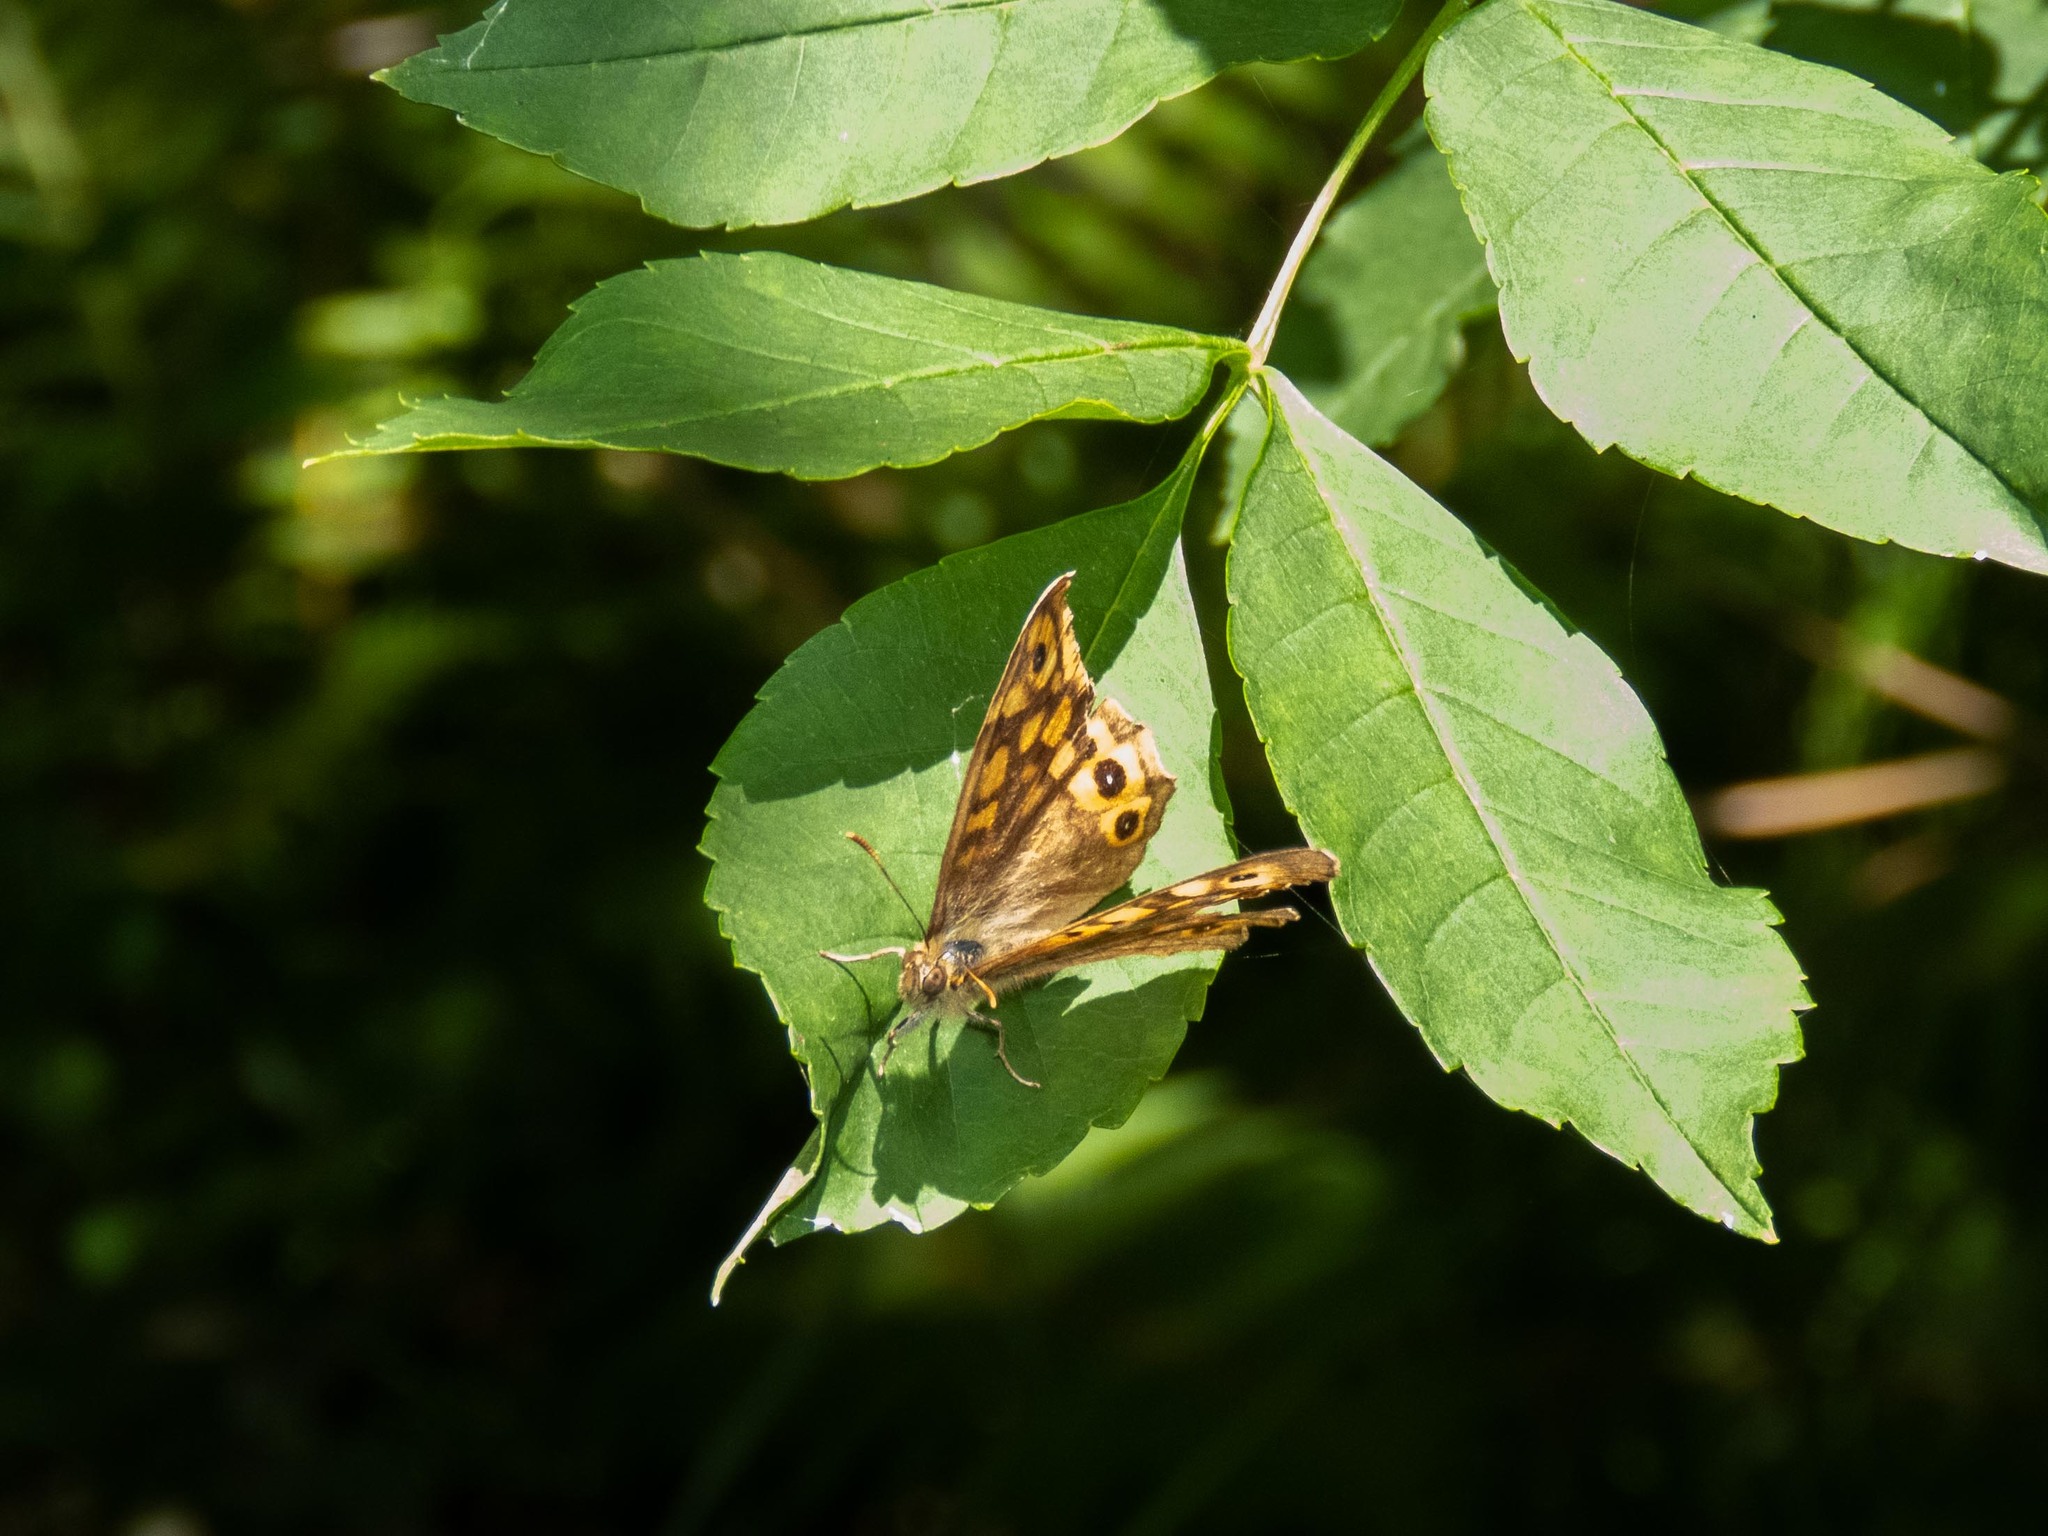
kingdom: Animalia
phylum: Arthropoda
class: Insecta
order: Lepidoptera
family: Nymphalidae
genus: Pararge
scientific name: Pararge aegeria
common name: Speckled wood
